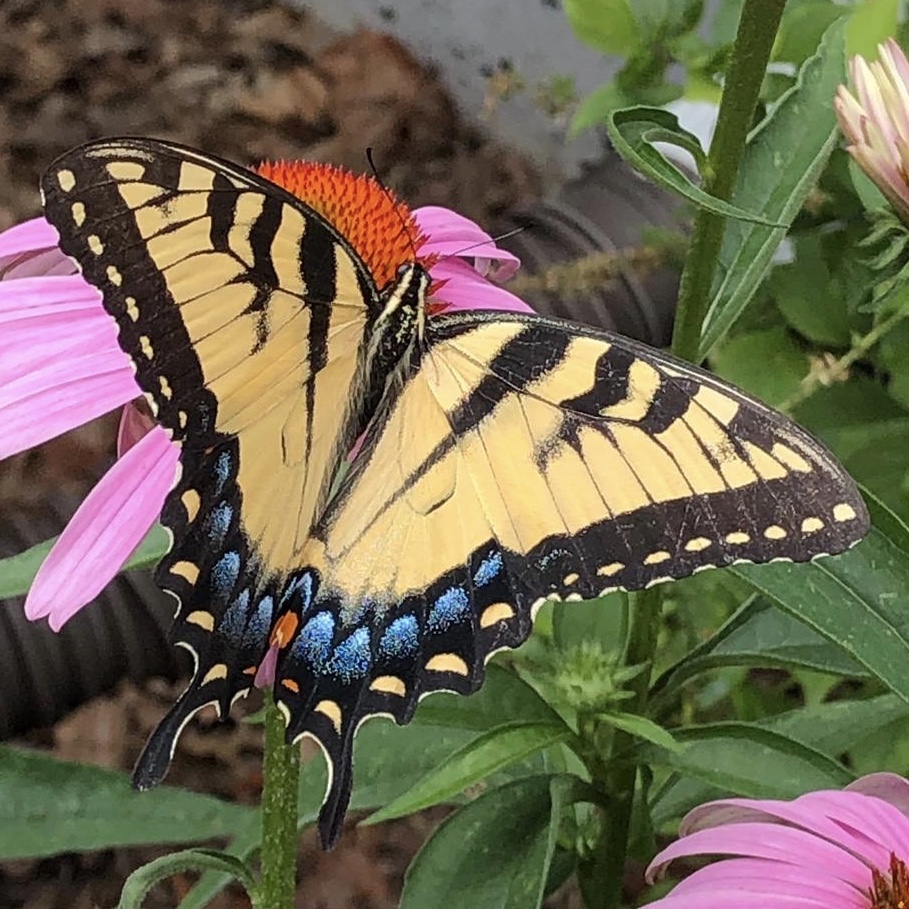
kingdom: Animalia
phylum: Arthropoda
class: Insecta
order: Lepidoptera
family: Papilionidae
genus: Papilio
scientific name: Papilio glaucus
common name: Tiger swallowtail
